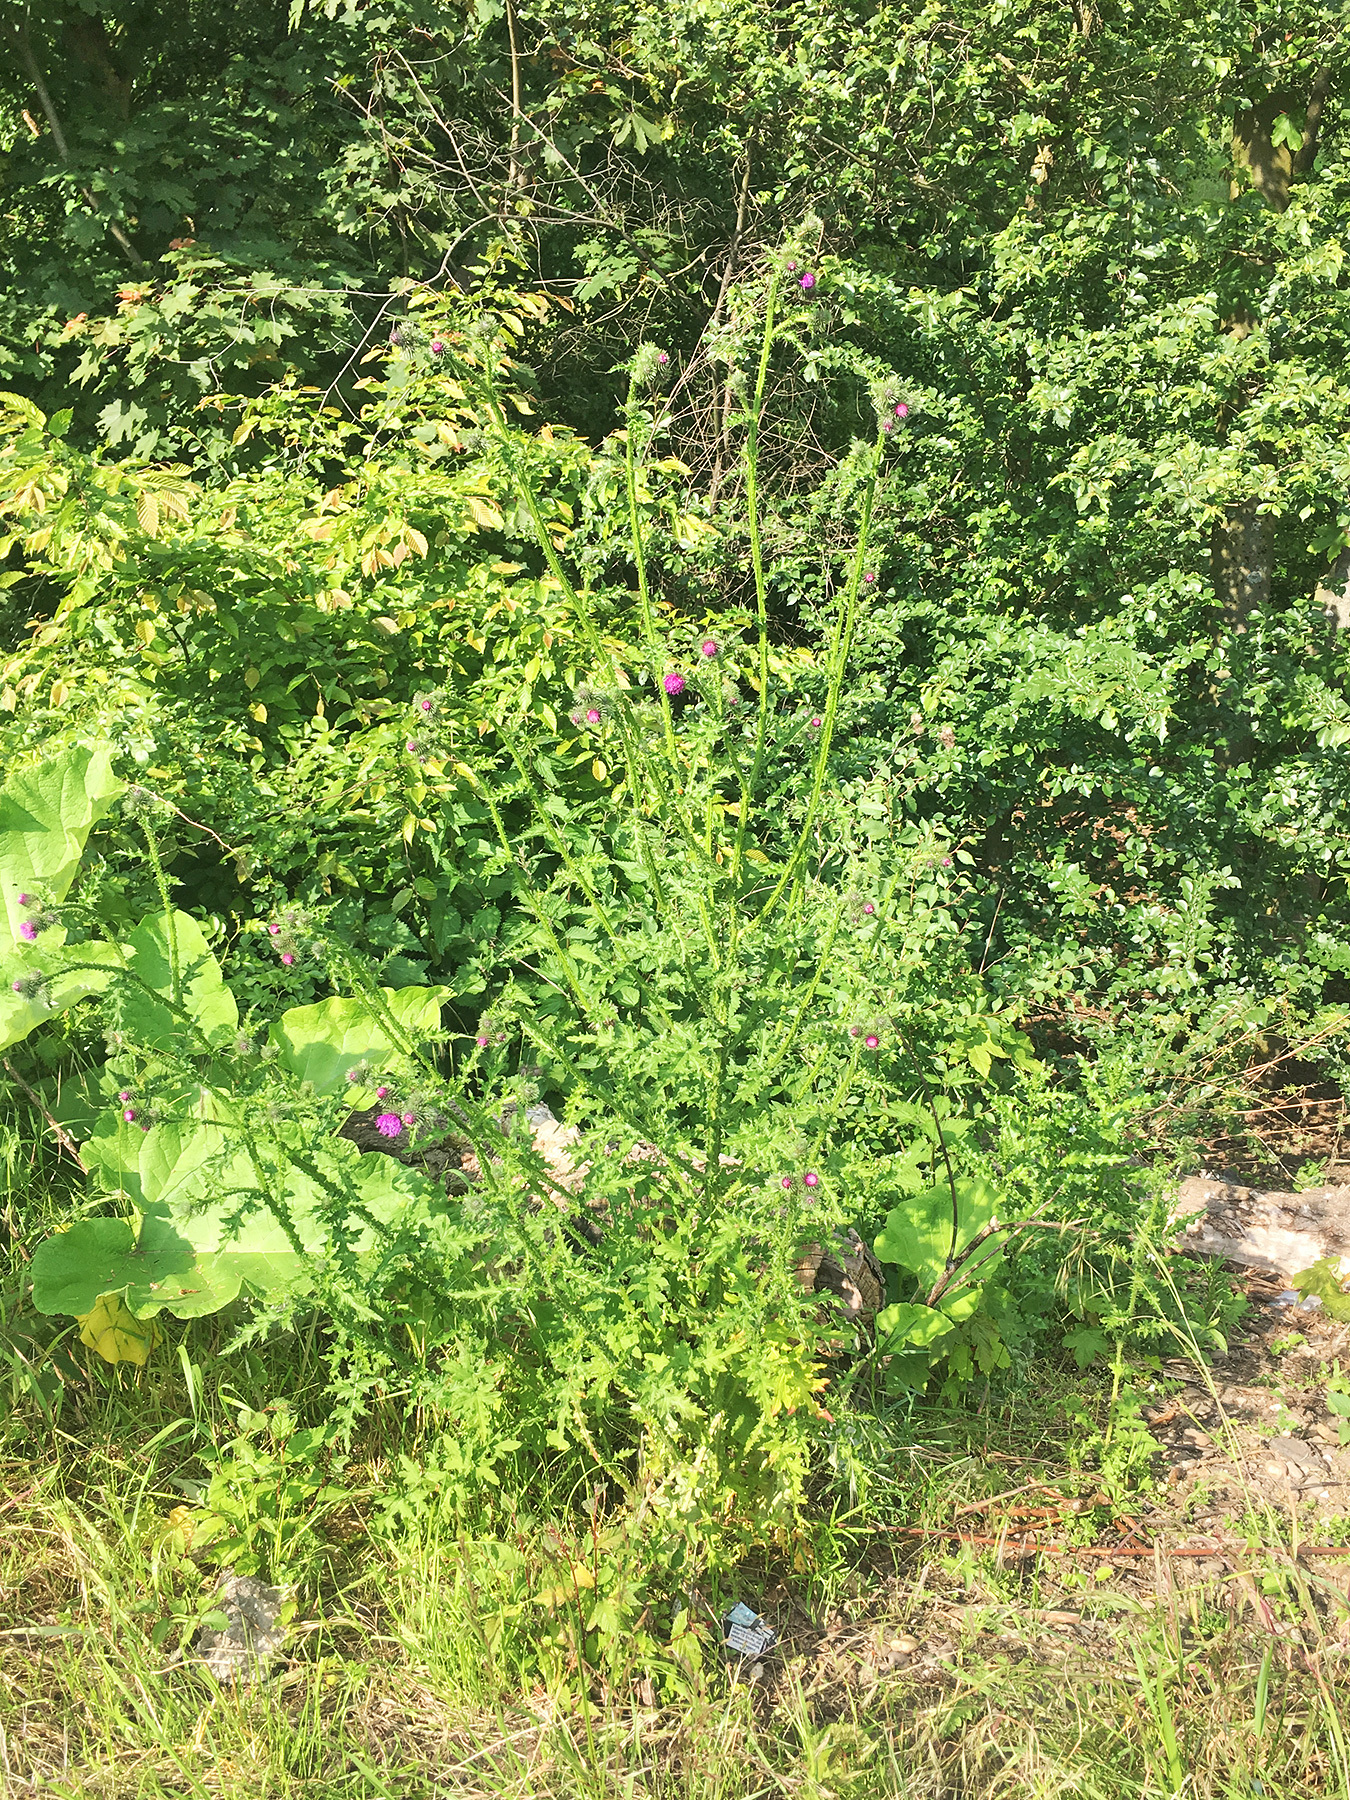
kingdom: Plantae
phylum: Tracheophyta
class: Magnoliopsida
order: Asterales
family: Asteraceae
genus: Carduus
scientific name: Carduus acanthoides
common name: Plumeless thistle
